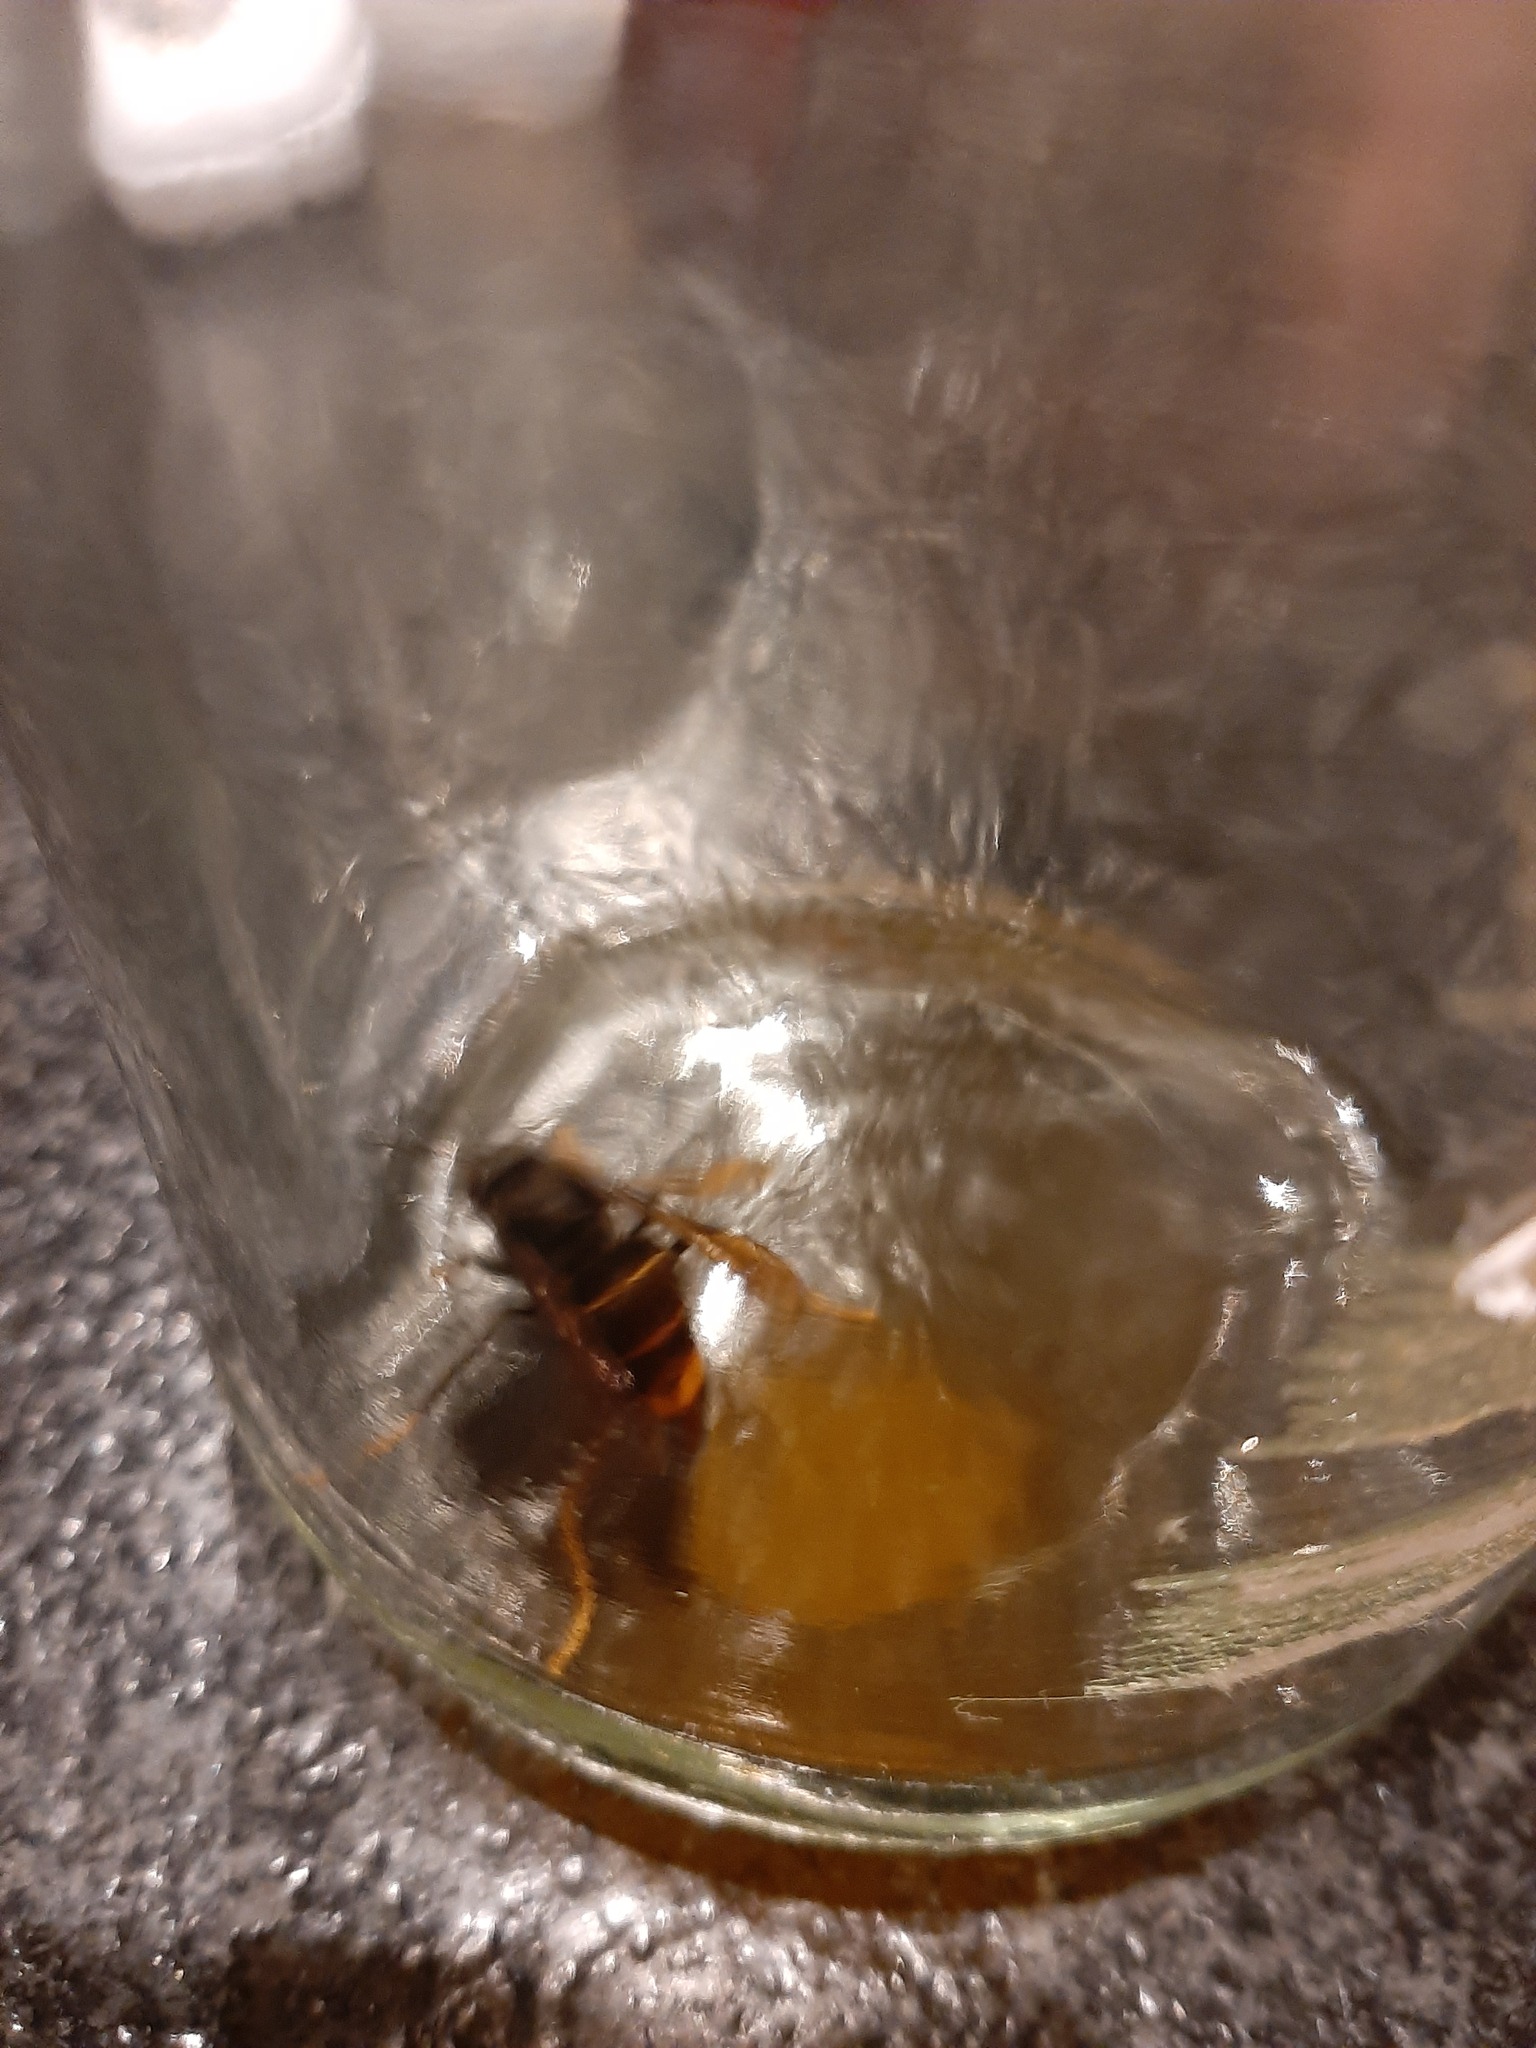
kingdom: Animalia
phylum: Arthropoda
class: Insecta
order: Hymenoptera
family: Vespidae
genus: Vespa
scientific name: Vespa velutina
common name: Asian hornet
